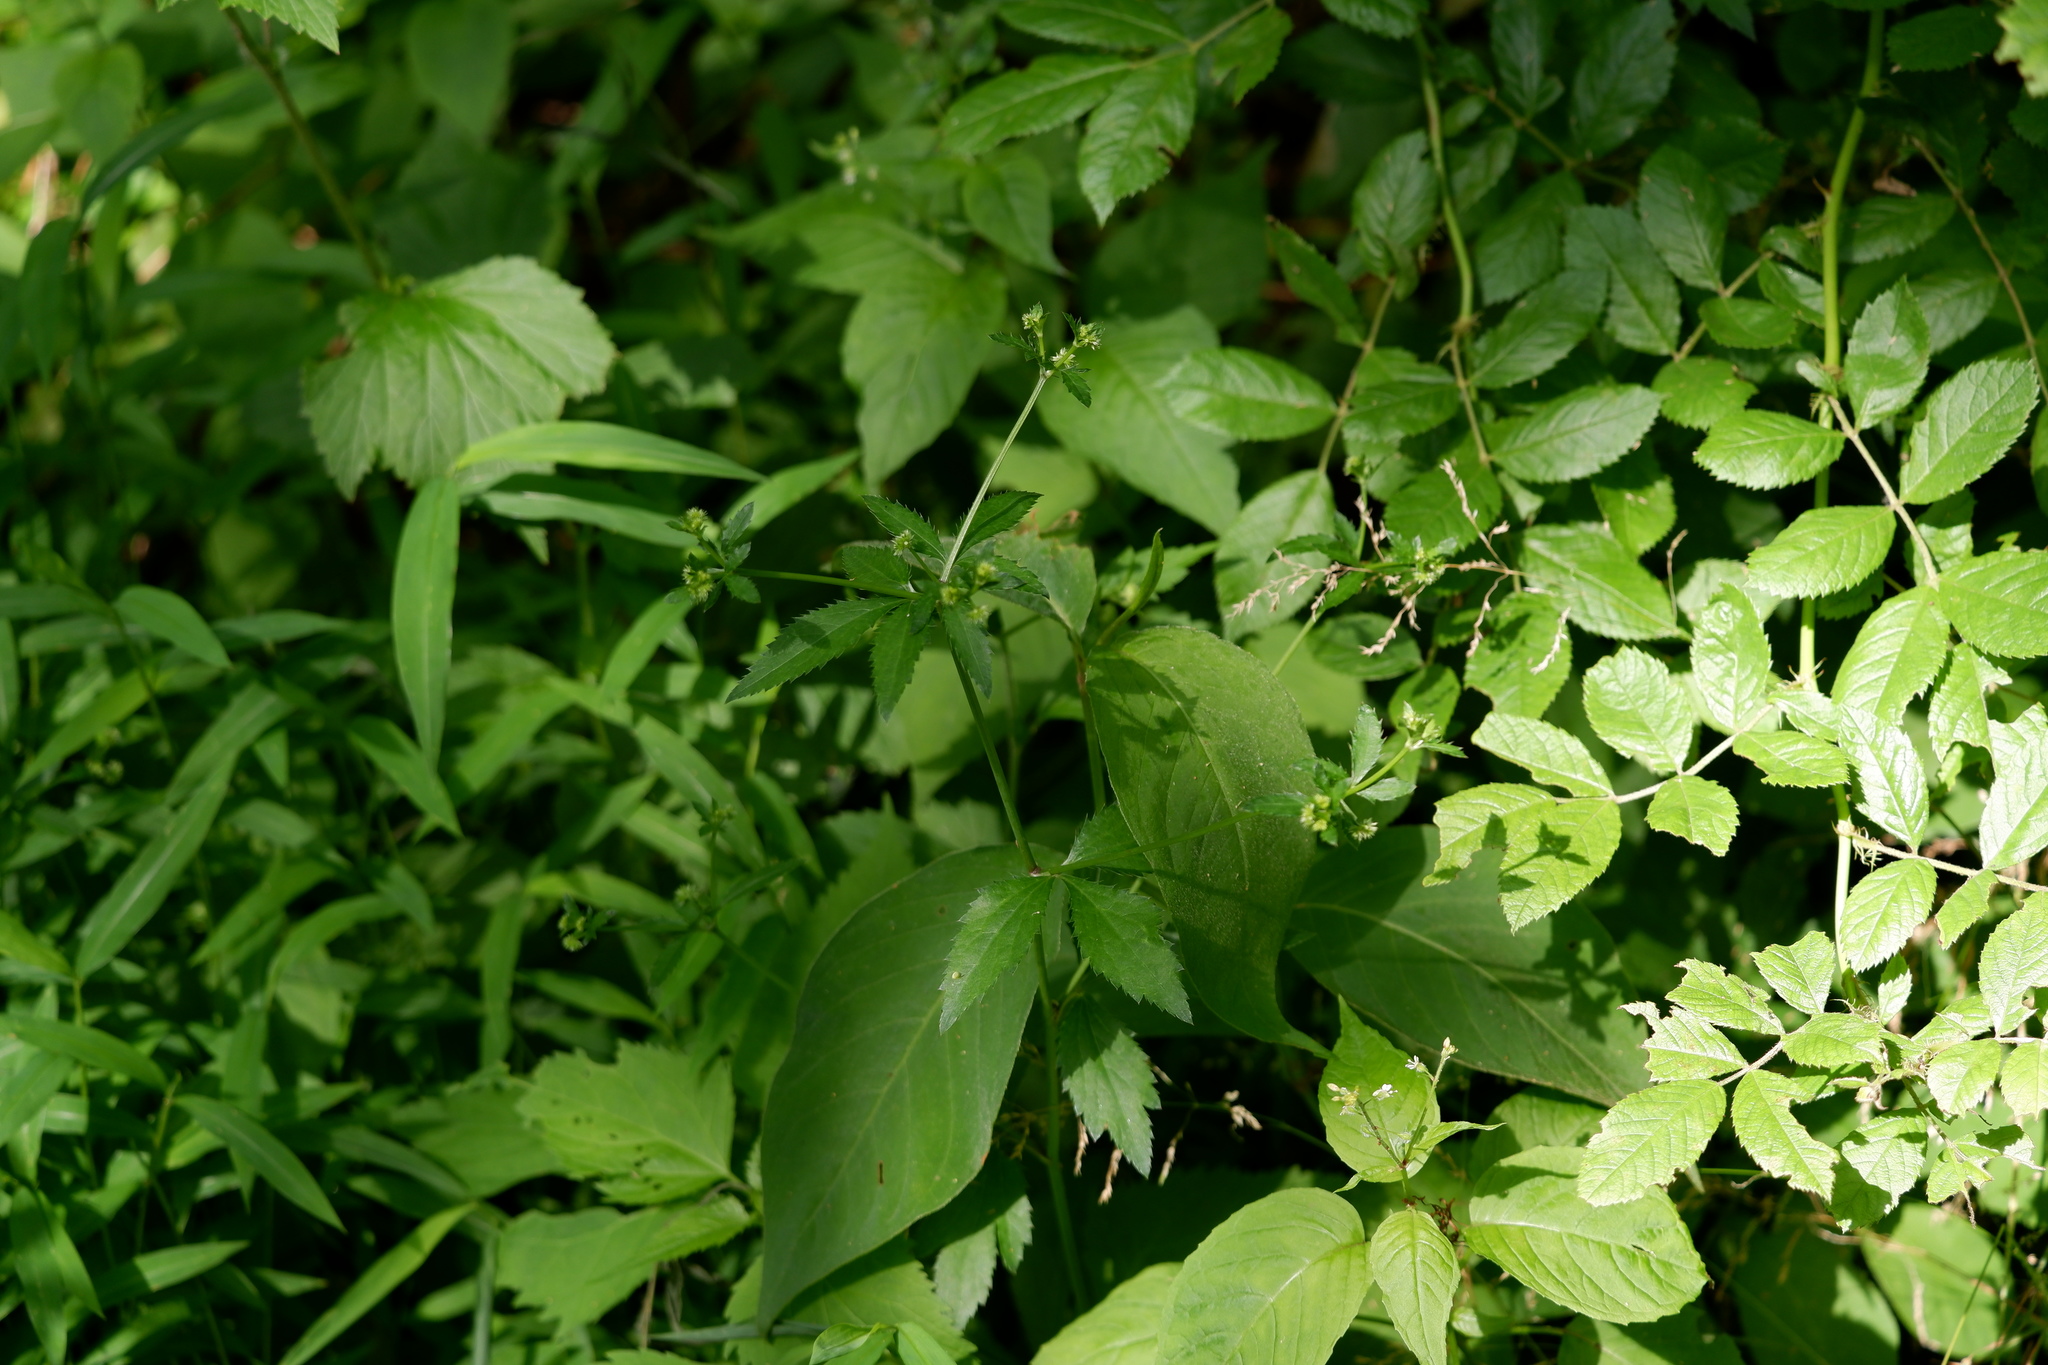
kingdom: Plantae
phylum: Tracheophyta
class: Magnoliopsida
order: Apiales
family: Apiaceae
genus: Sanicula
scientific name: Sanicula canadensis
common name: Canada sanicle
